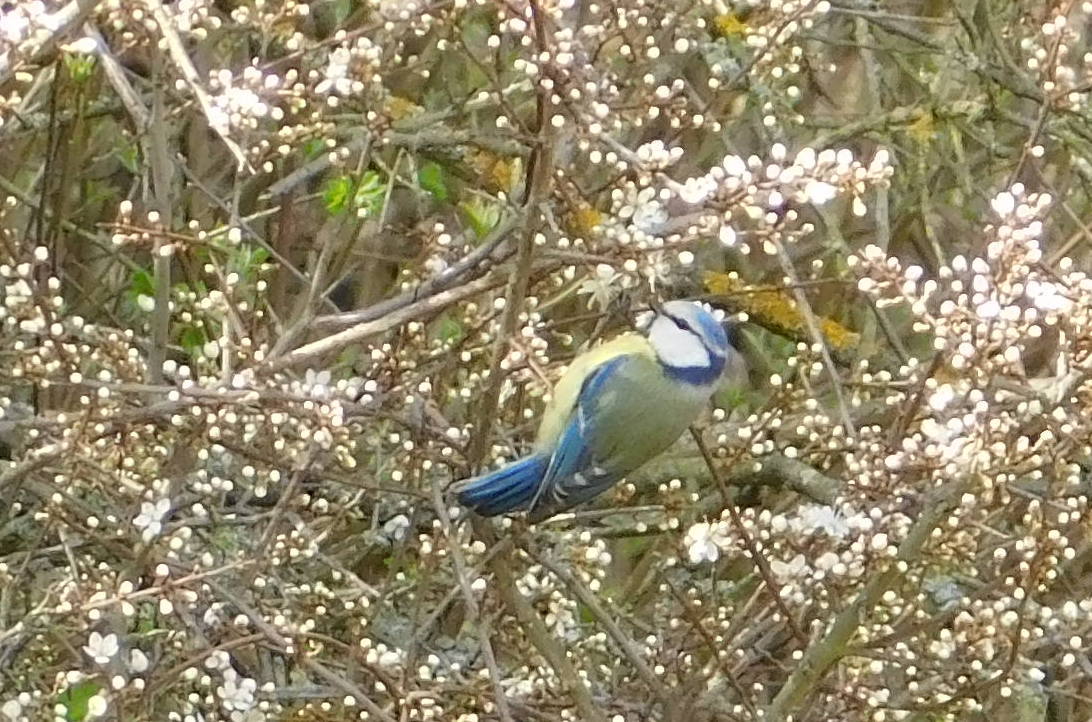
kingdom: Animalia
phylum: Chordata
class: Aves
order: Passeriformes
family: Paridae
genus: Cyanistes
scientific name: Cyanistes caeruleus
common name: Eurasian blue tit
